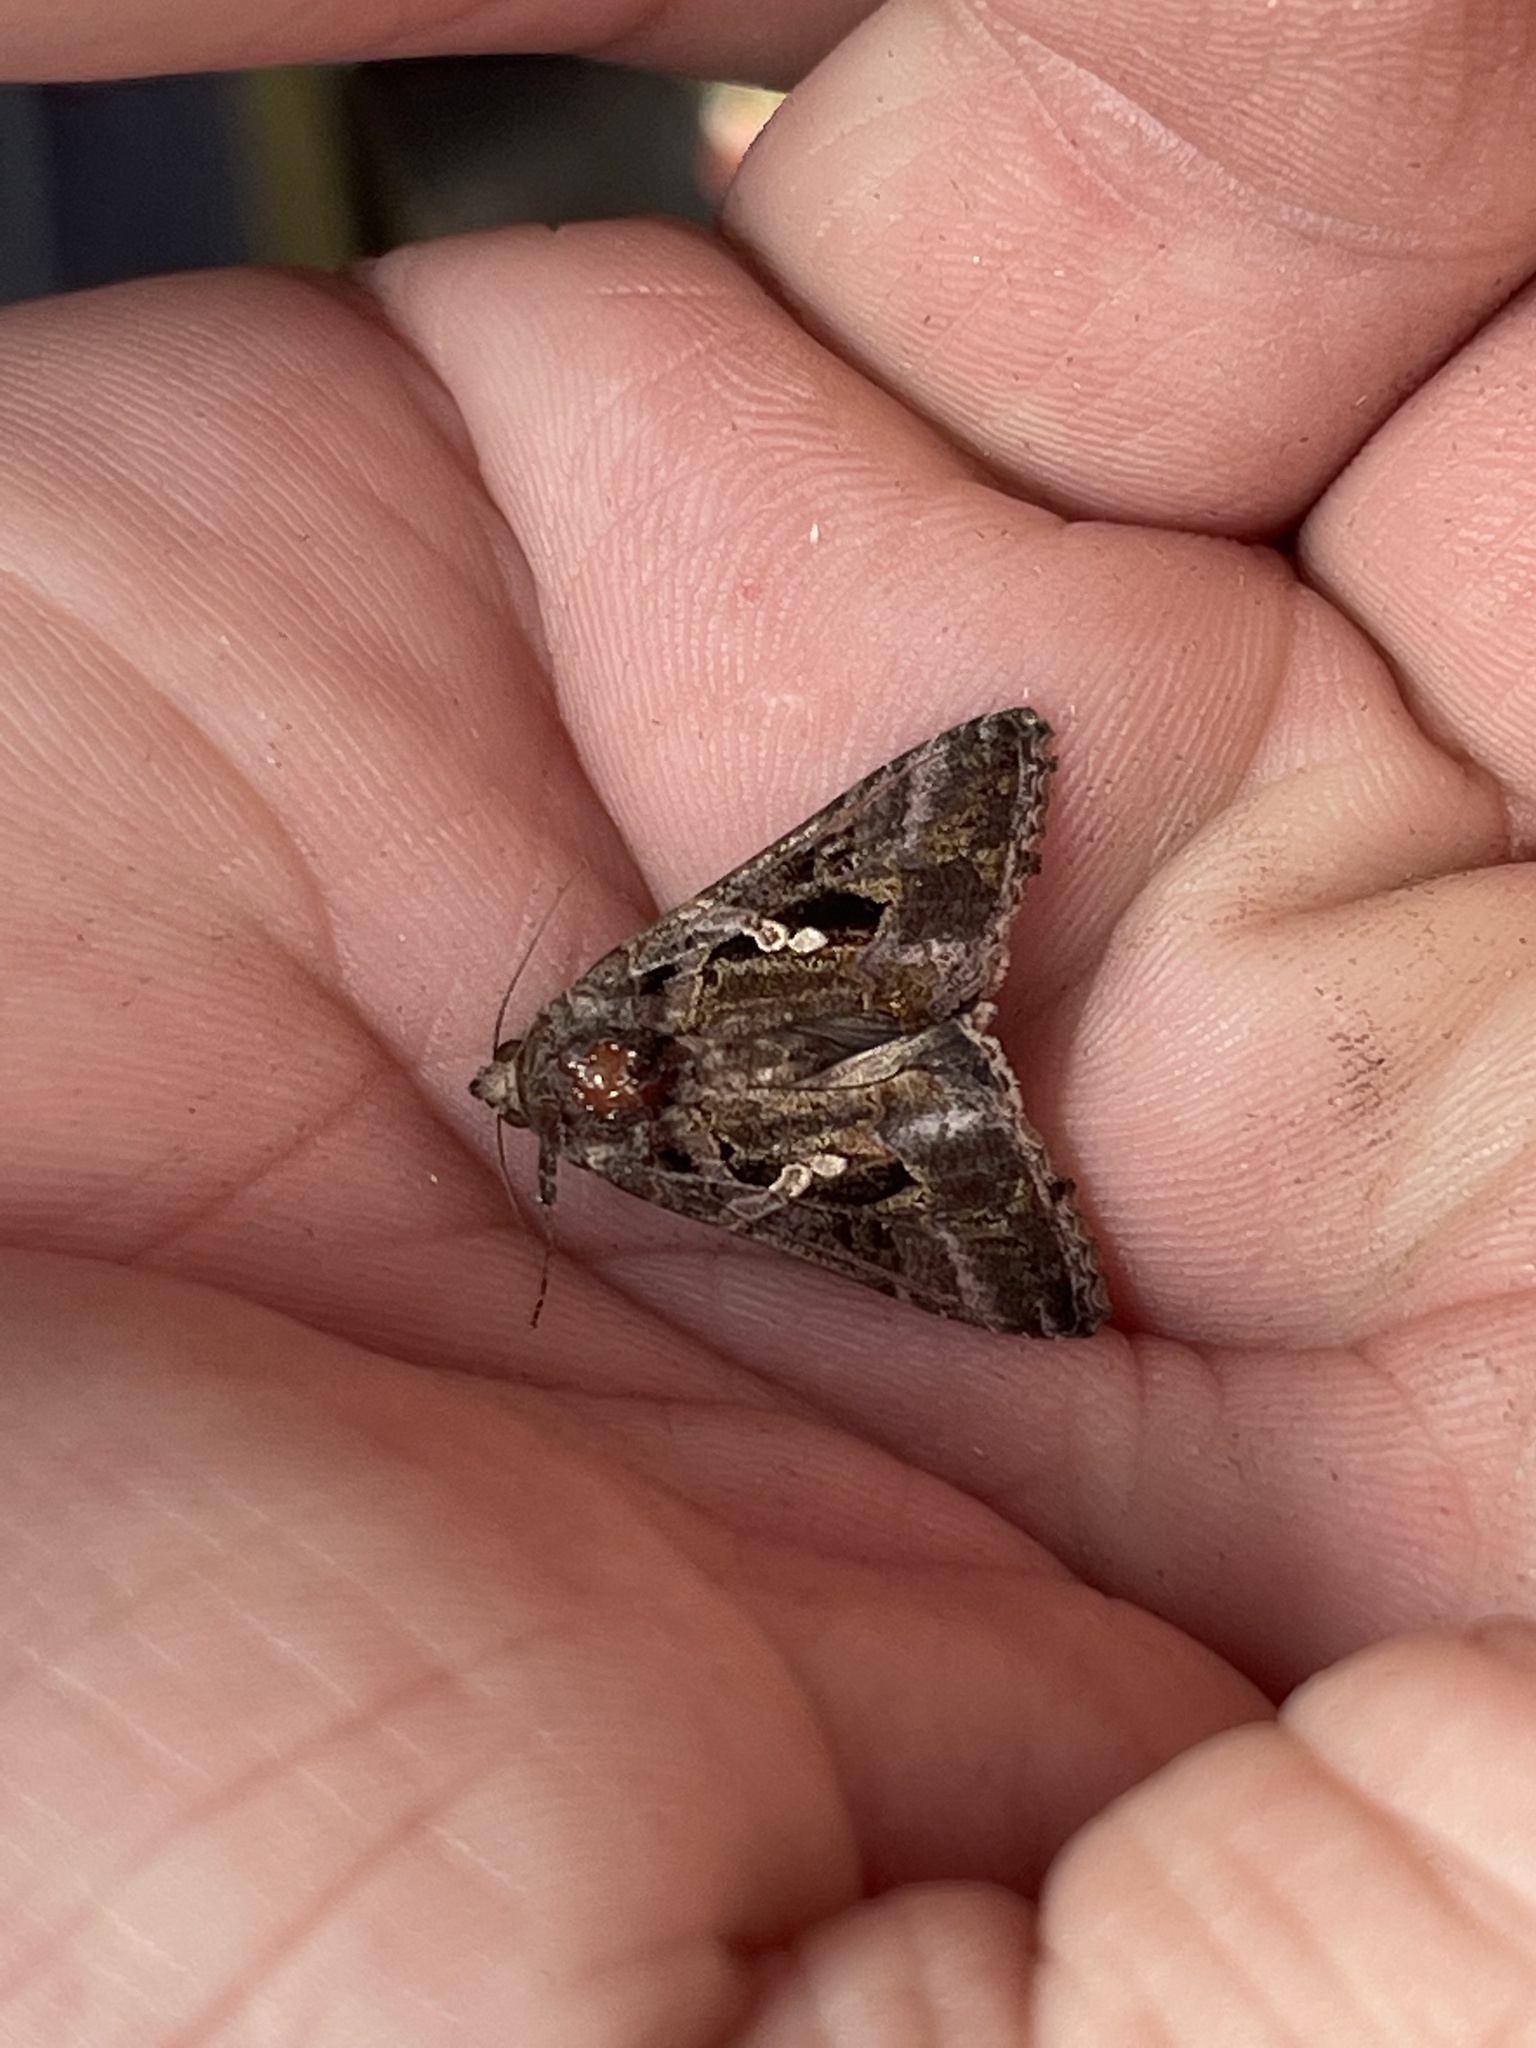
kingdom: Animalia
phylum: Arthropoda
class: Insecta
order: Lepidoptera
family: Noctuidae
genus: Chrysodeixis
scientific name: Chrysodeixis includens
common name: Cutworm moth
